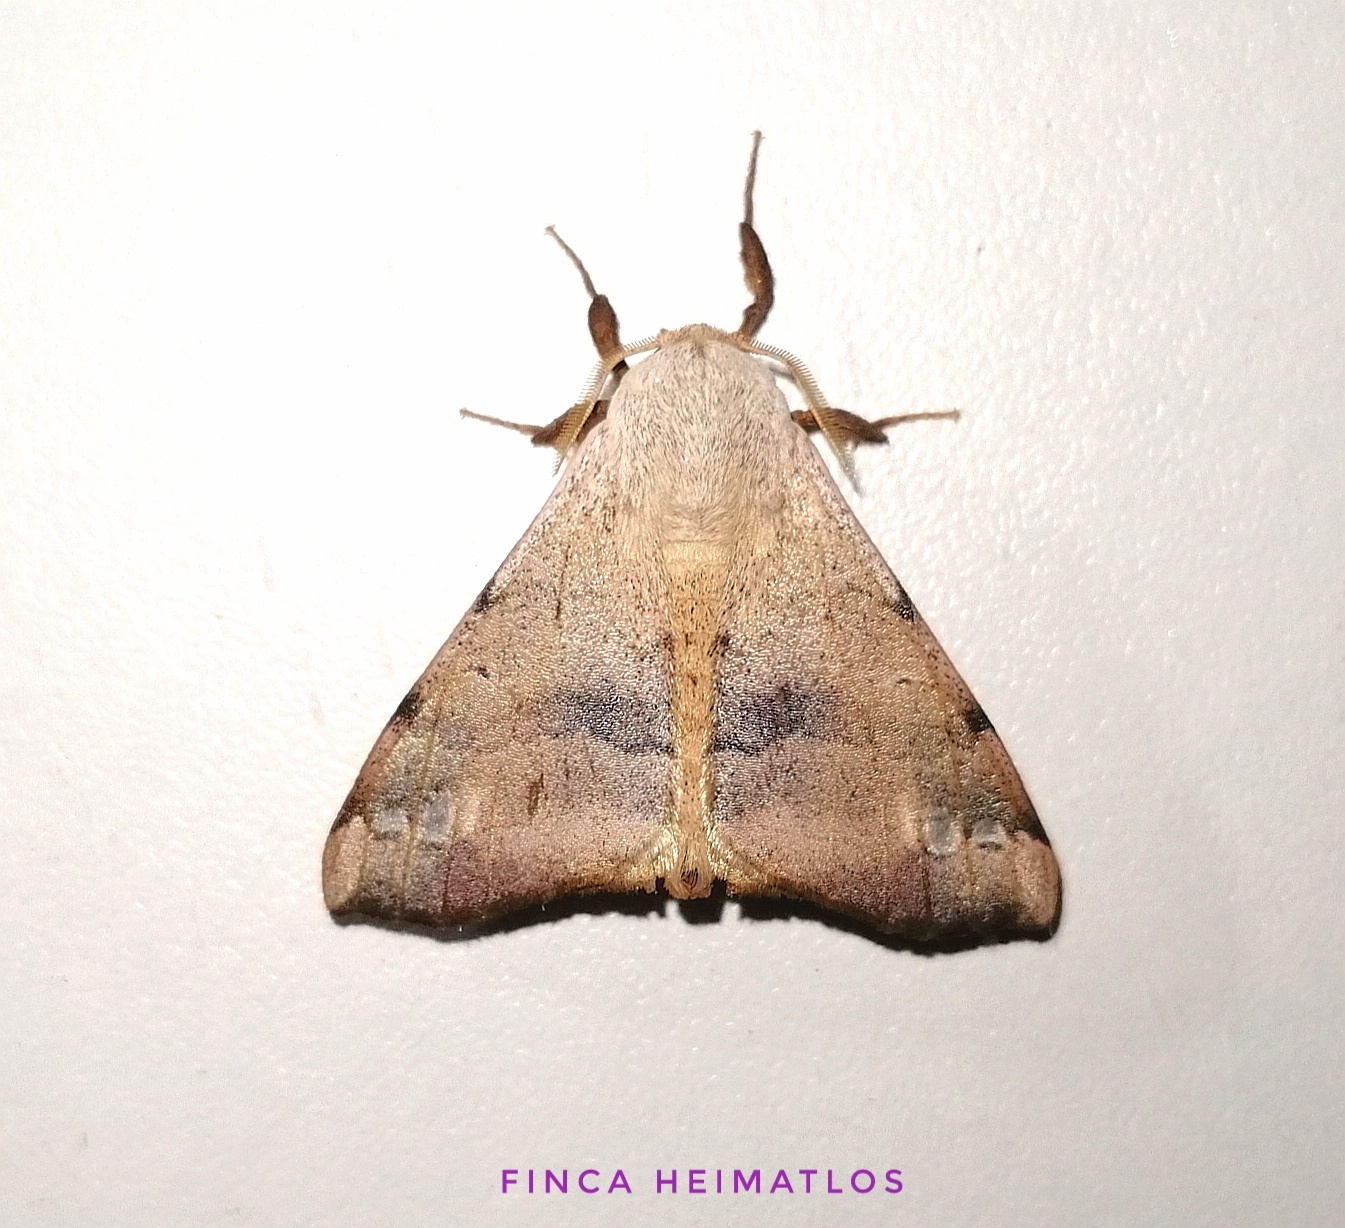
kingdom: Animalia
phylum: Arthropoda
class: Insecta
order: Lepidoptera
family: Apatelodidae
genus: Hygrochroa
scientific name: Hygrochroa Apatelodes anna
